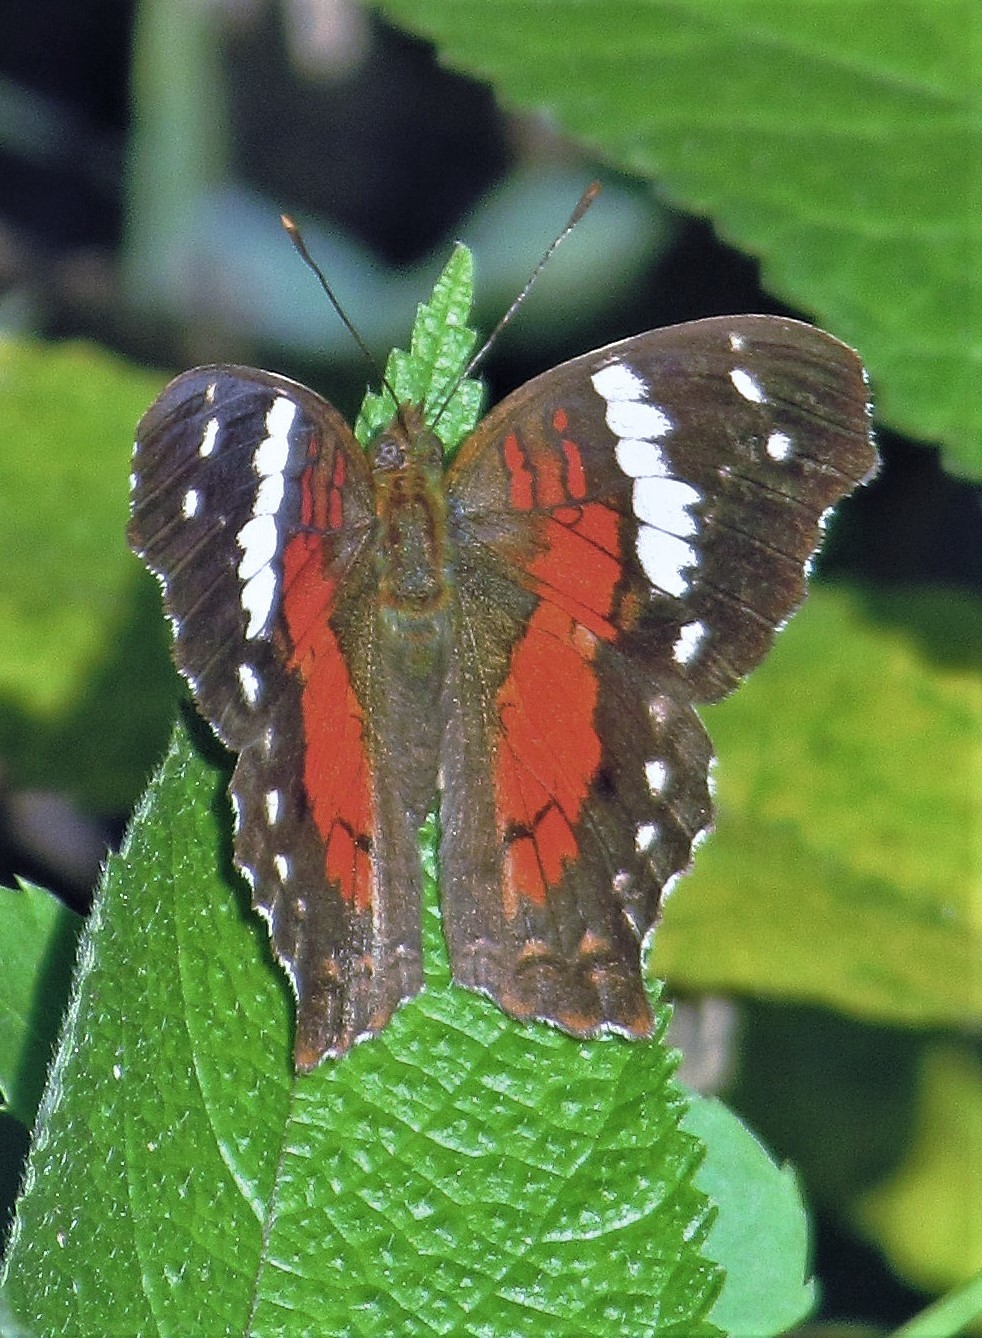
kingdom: Animalia
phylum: Arthropoda
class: Insecta
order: Lepidoptera
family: Nymphalidae
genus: Anartia
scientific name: Anartia amathea
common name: Red peacock
